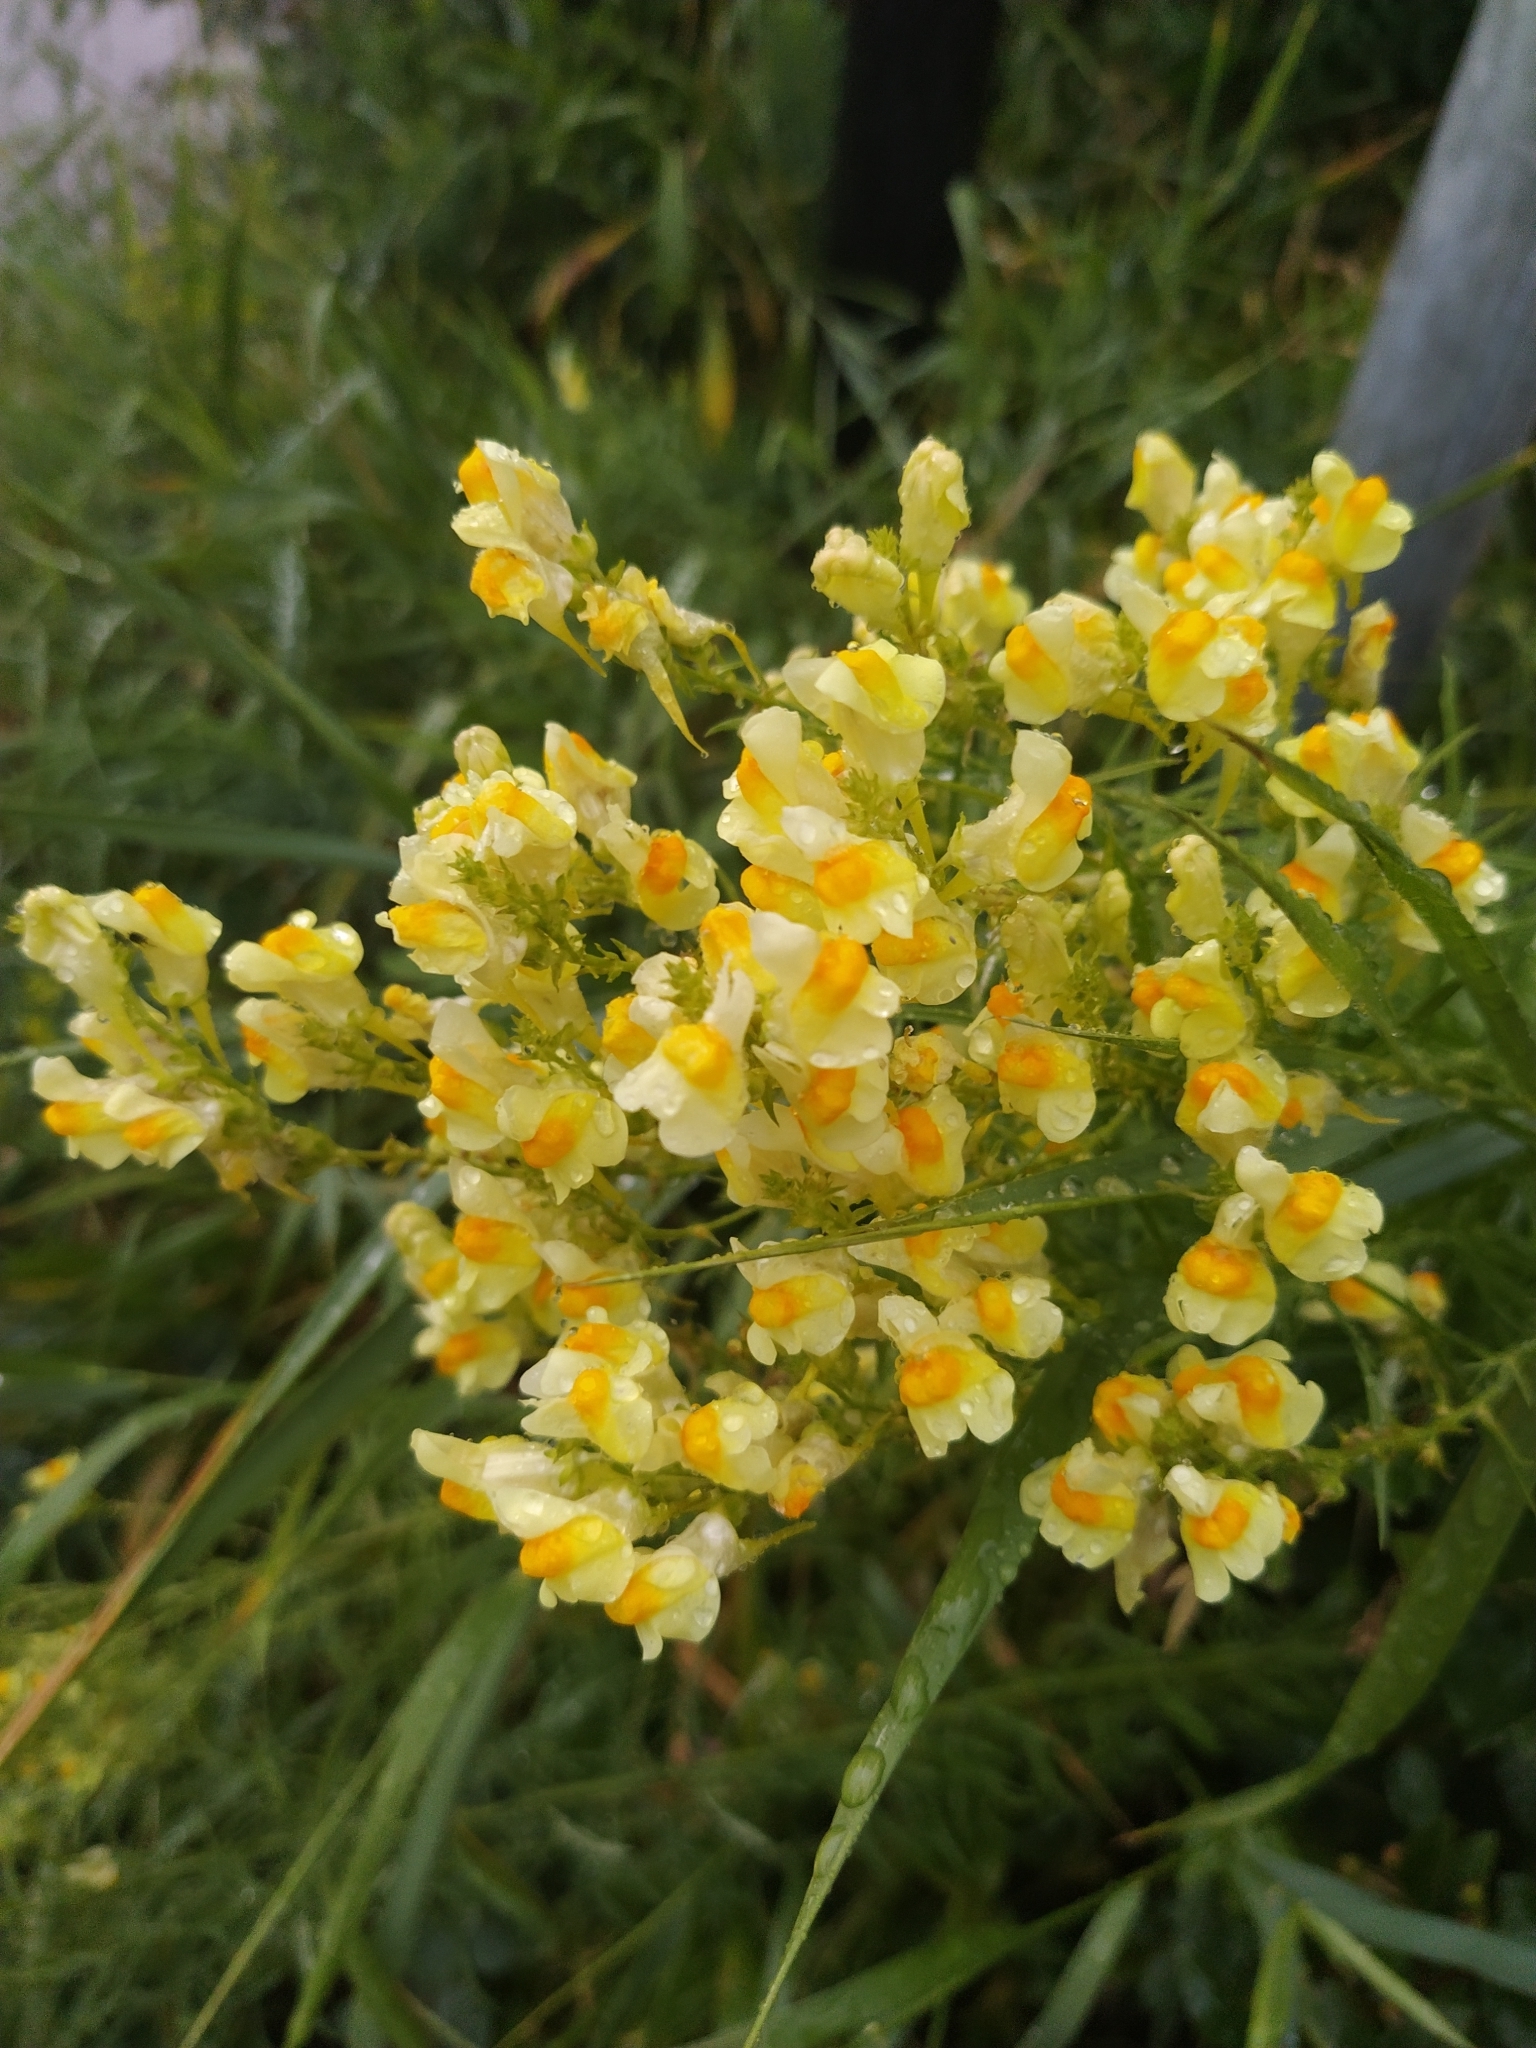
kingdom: Plantae
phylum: Tracheophyta
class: Magnoliopsida
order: Lamiales
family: Plantaginaceae
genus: Linaria
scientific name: Linaria vulgaris
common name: Butter and eggs
